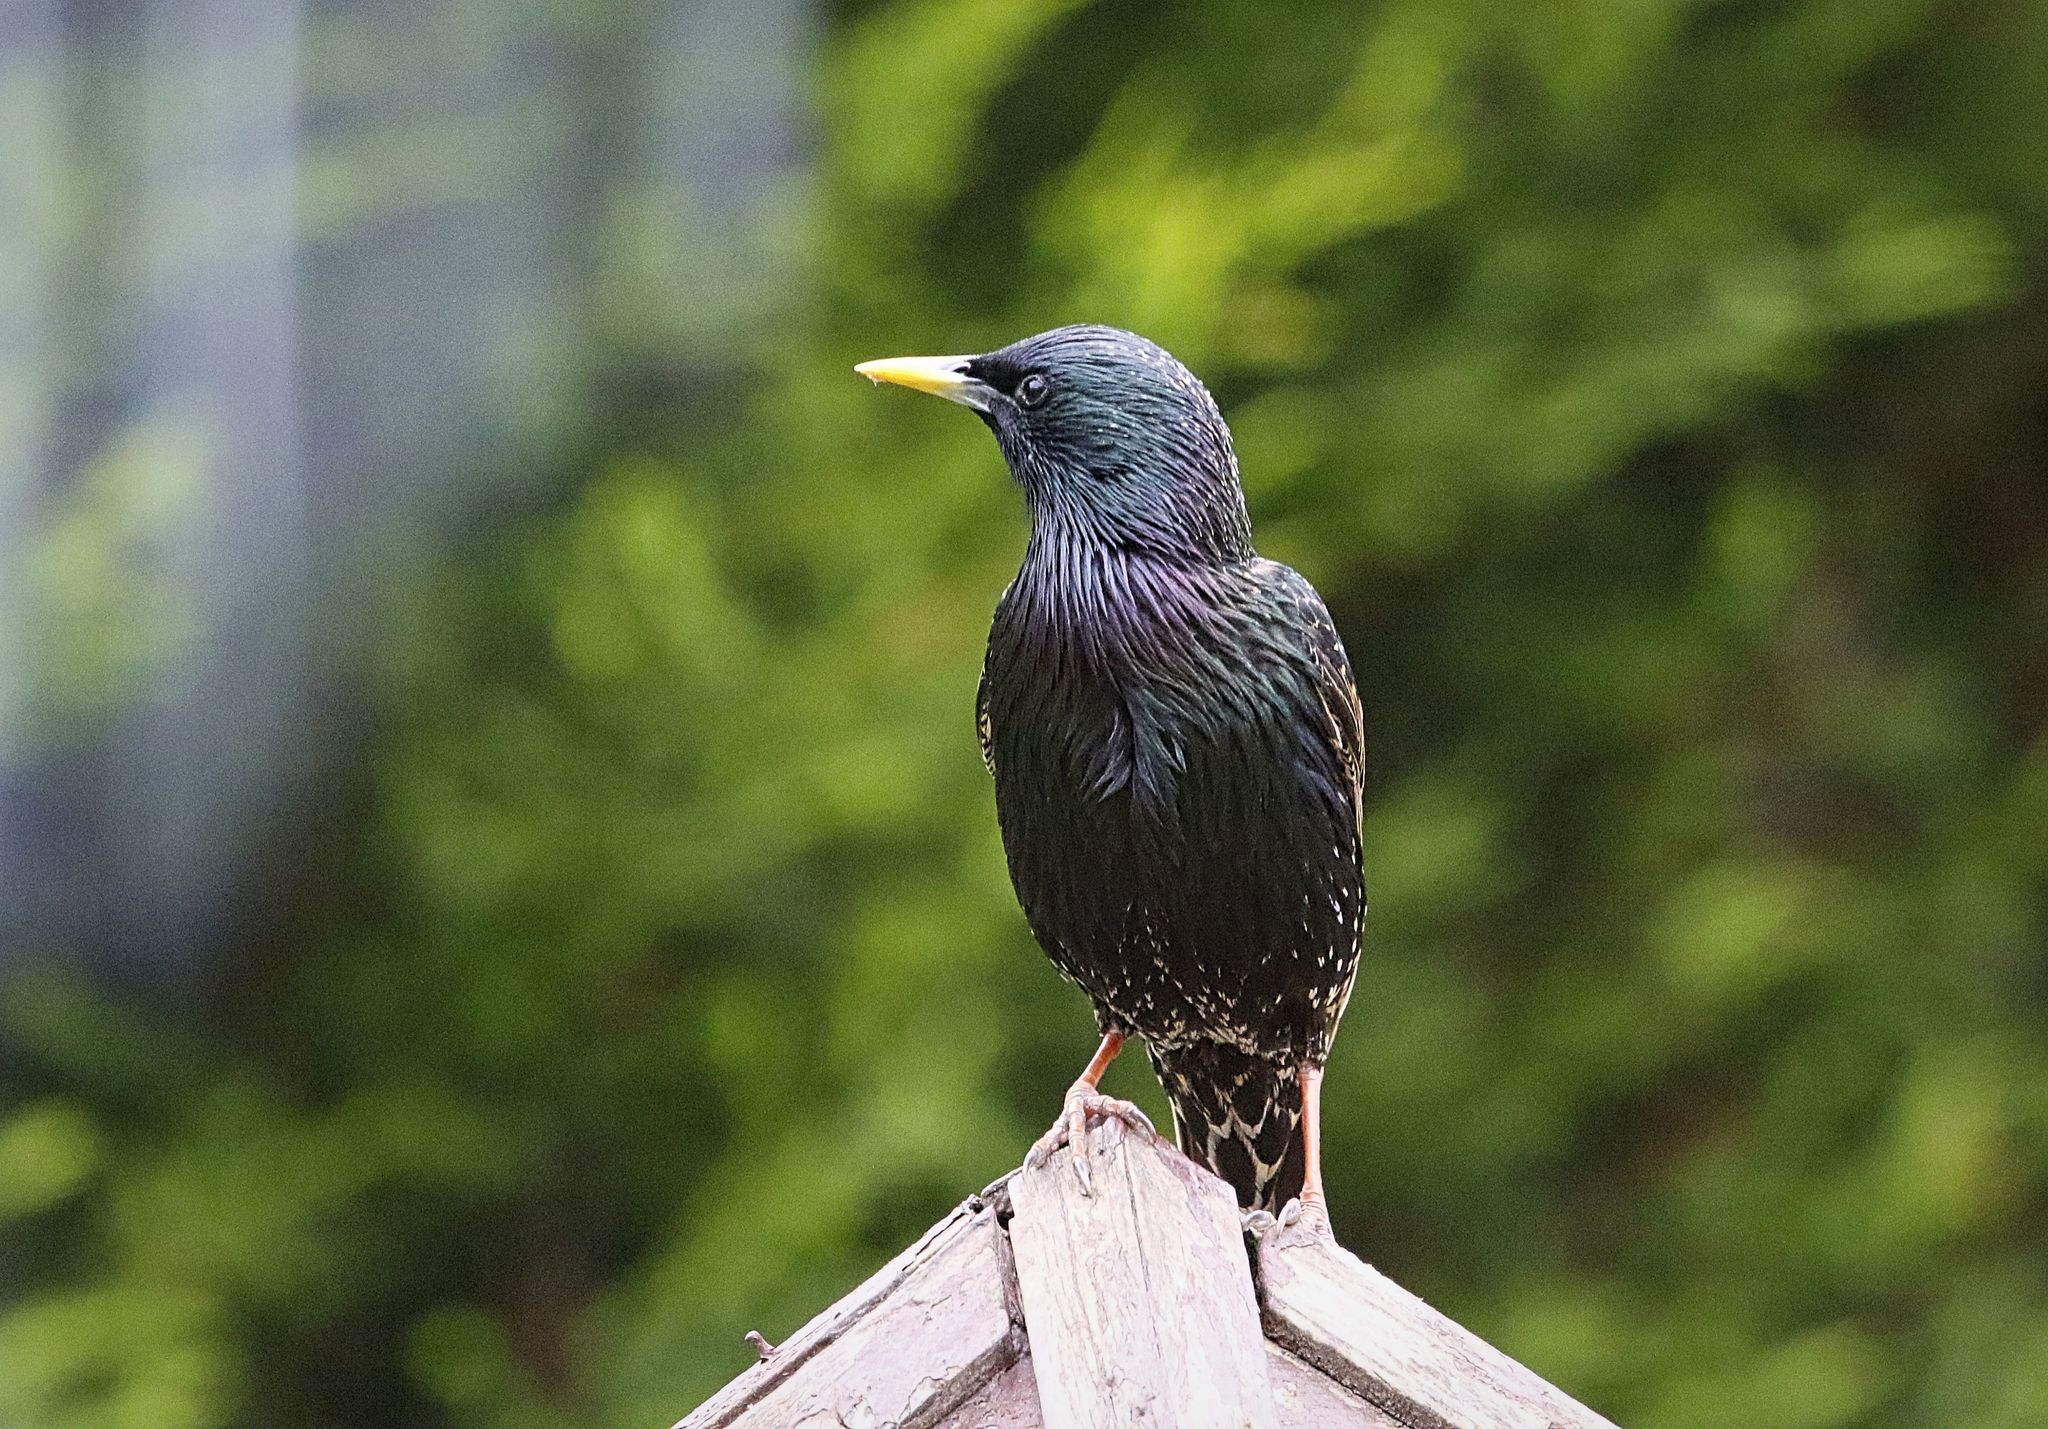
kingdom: Animalia
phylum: Chordata
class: Aves
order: Passeriformes
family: Sturnidae
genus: Sturnus
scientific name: Sturnus vulgaris
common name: Common starling
